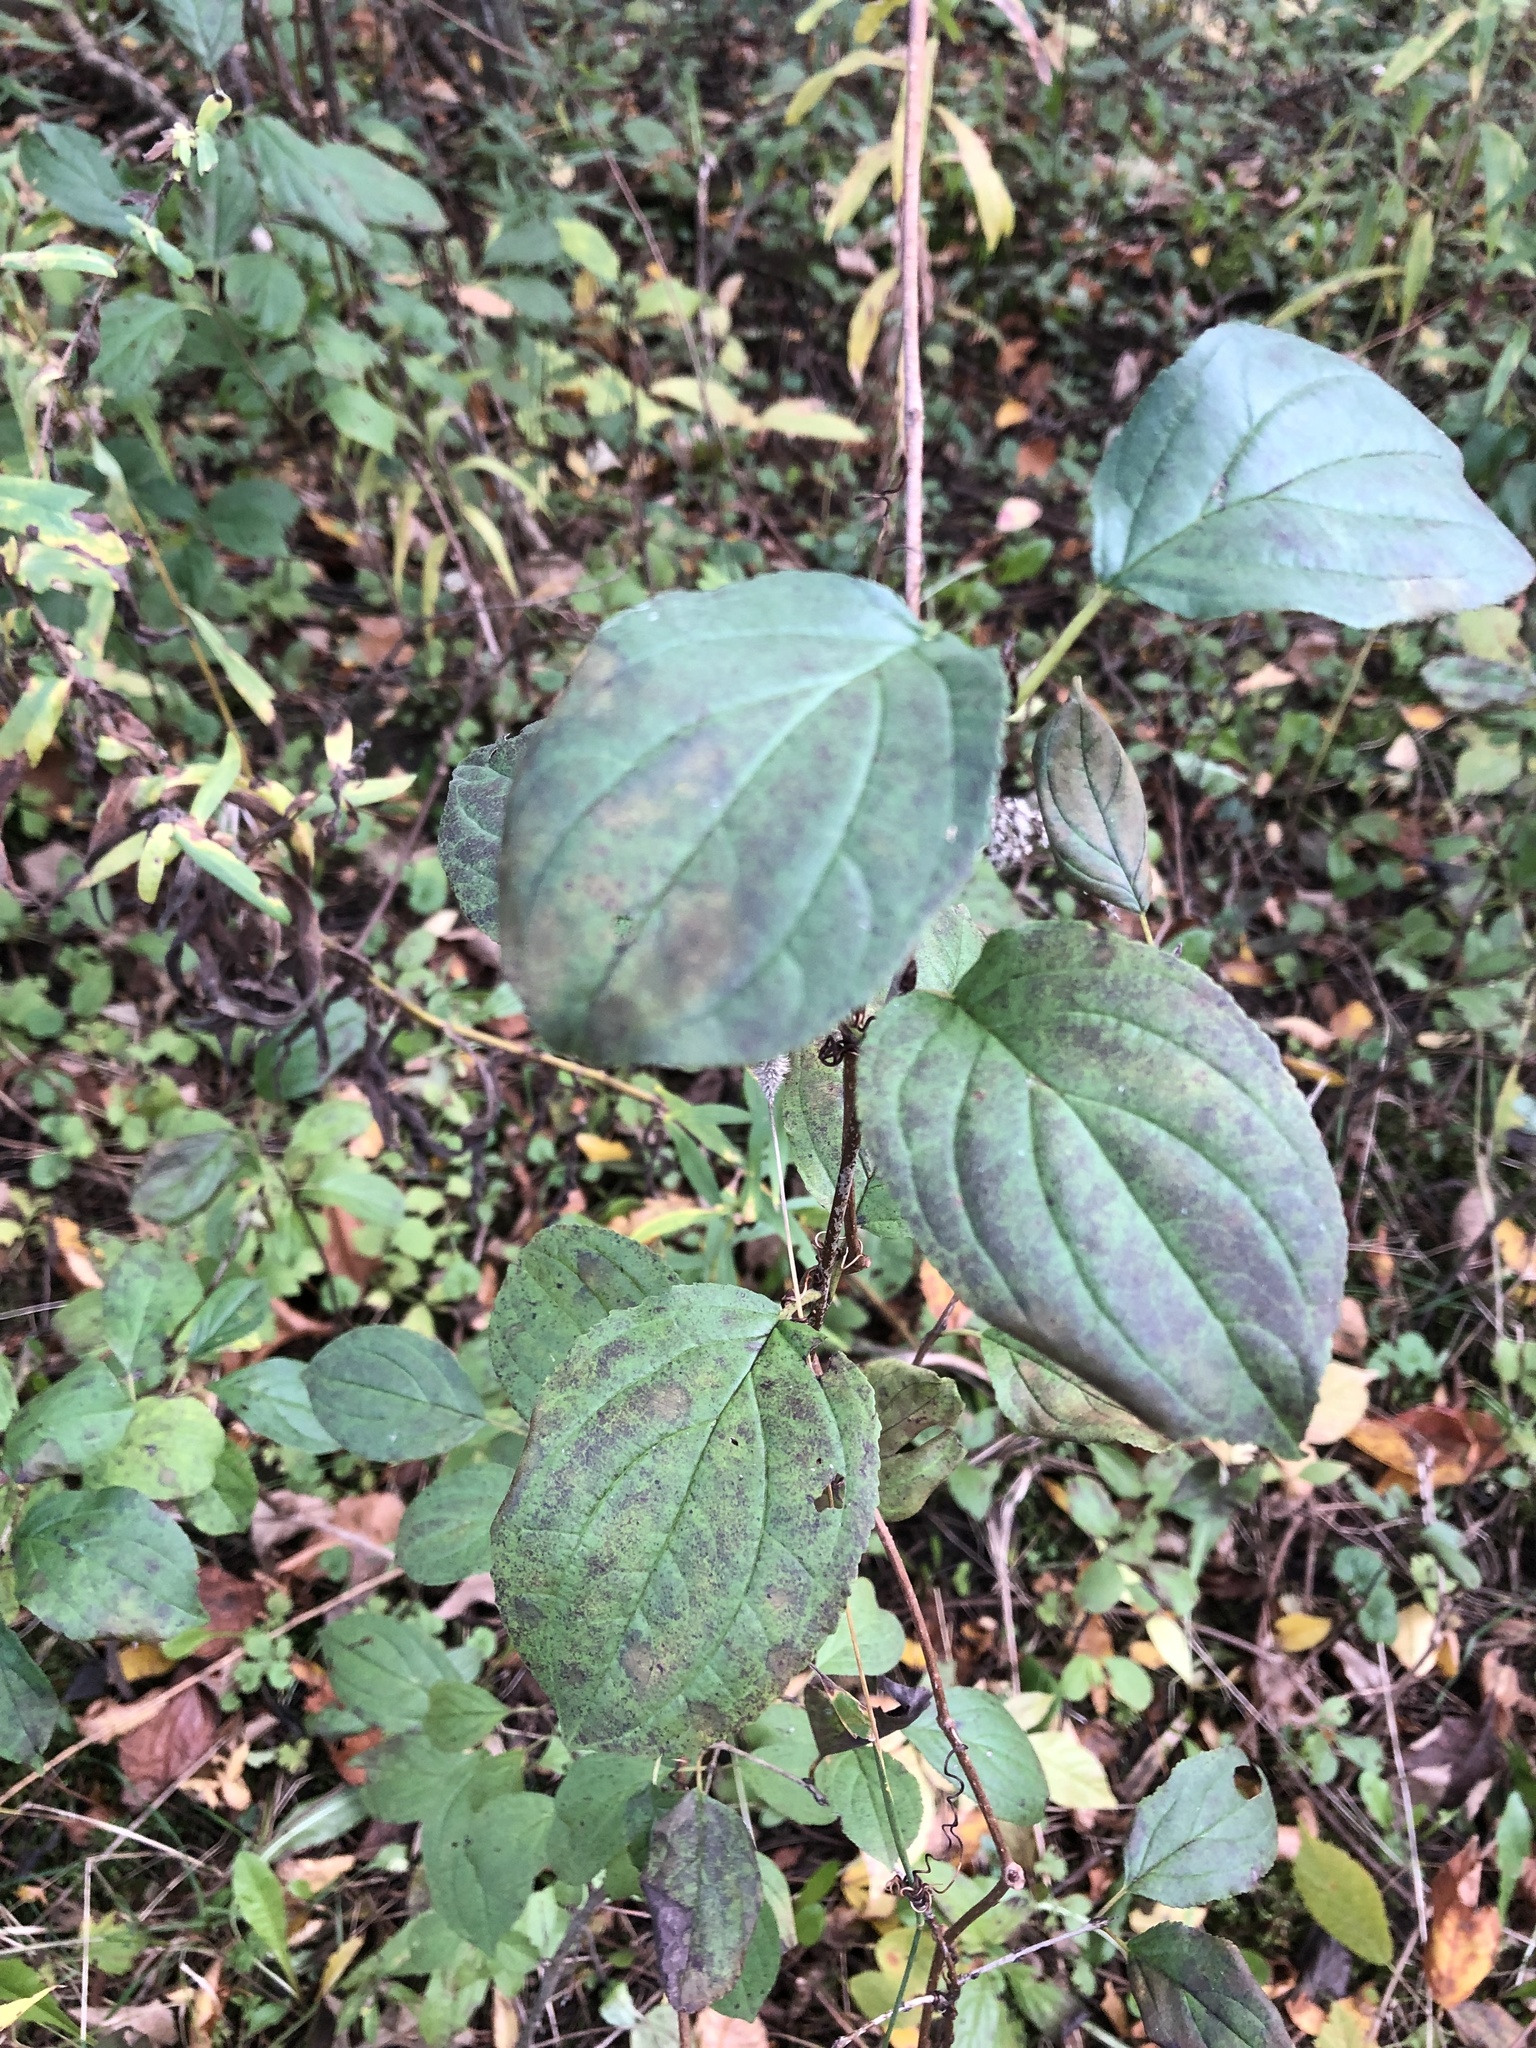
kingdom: Plantae
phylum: Tracheophyta
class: Magnoliopsida
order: Rosales
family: Rhamnaceae
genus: Rhamnus
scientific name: Rhamnus cathartica
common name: Common buckthorn
